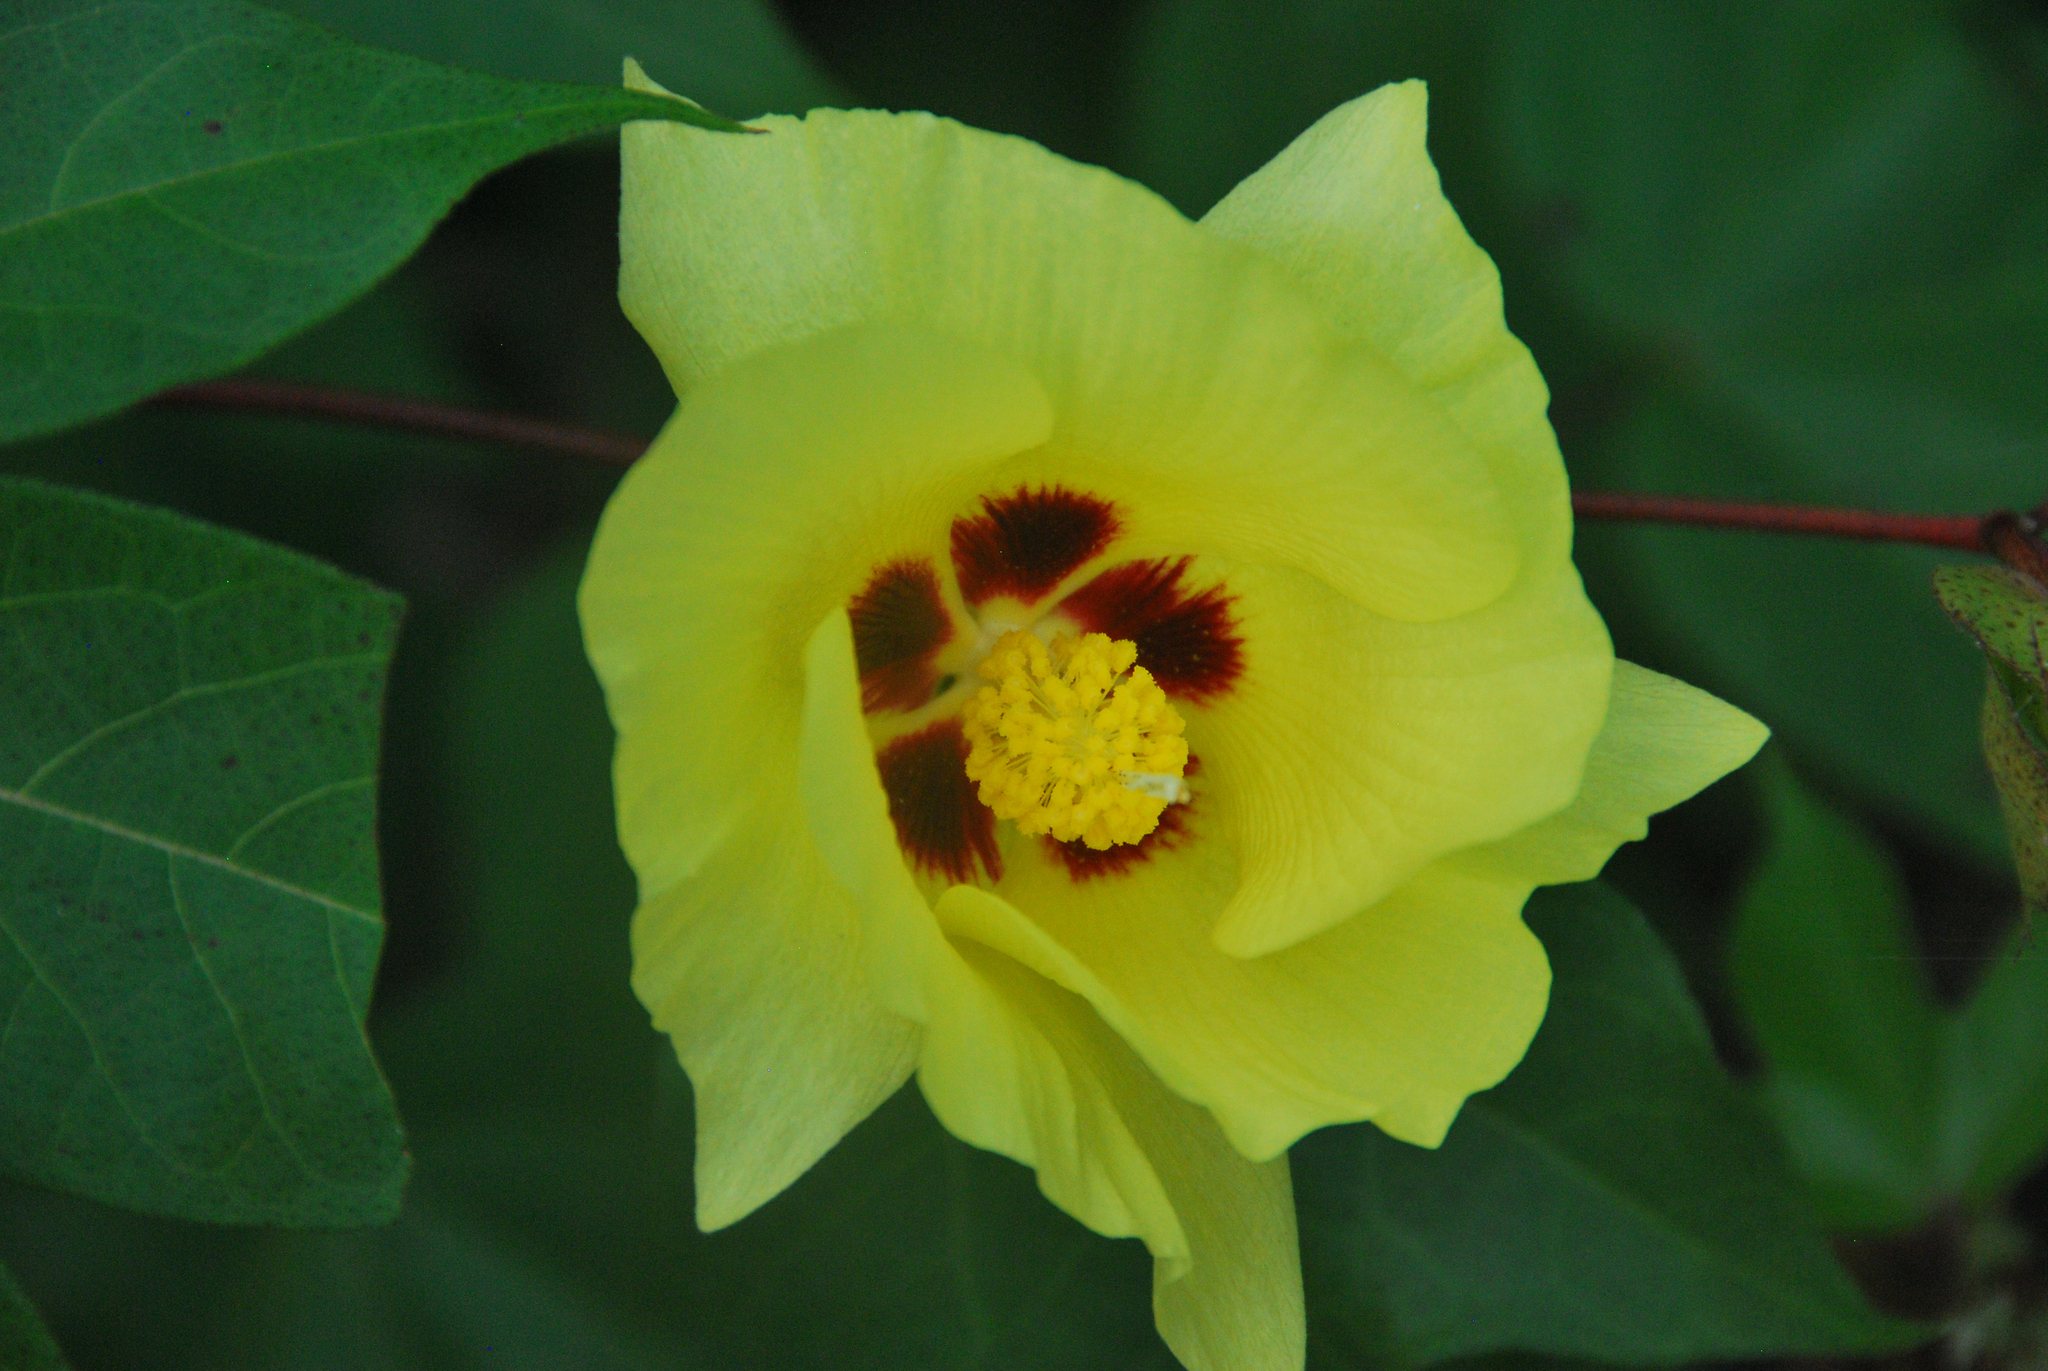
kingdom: Plantae
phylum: Tracheophyta
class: Magnoliopsida
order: Malvales
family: Malvaceae
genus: Gossypium
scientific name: Gossypium darwinii
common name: Darwin's cotton
